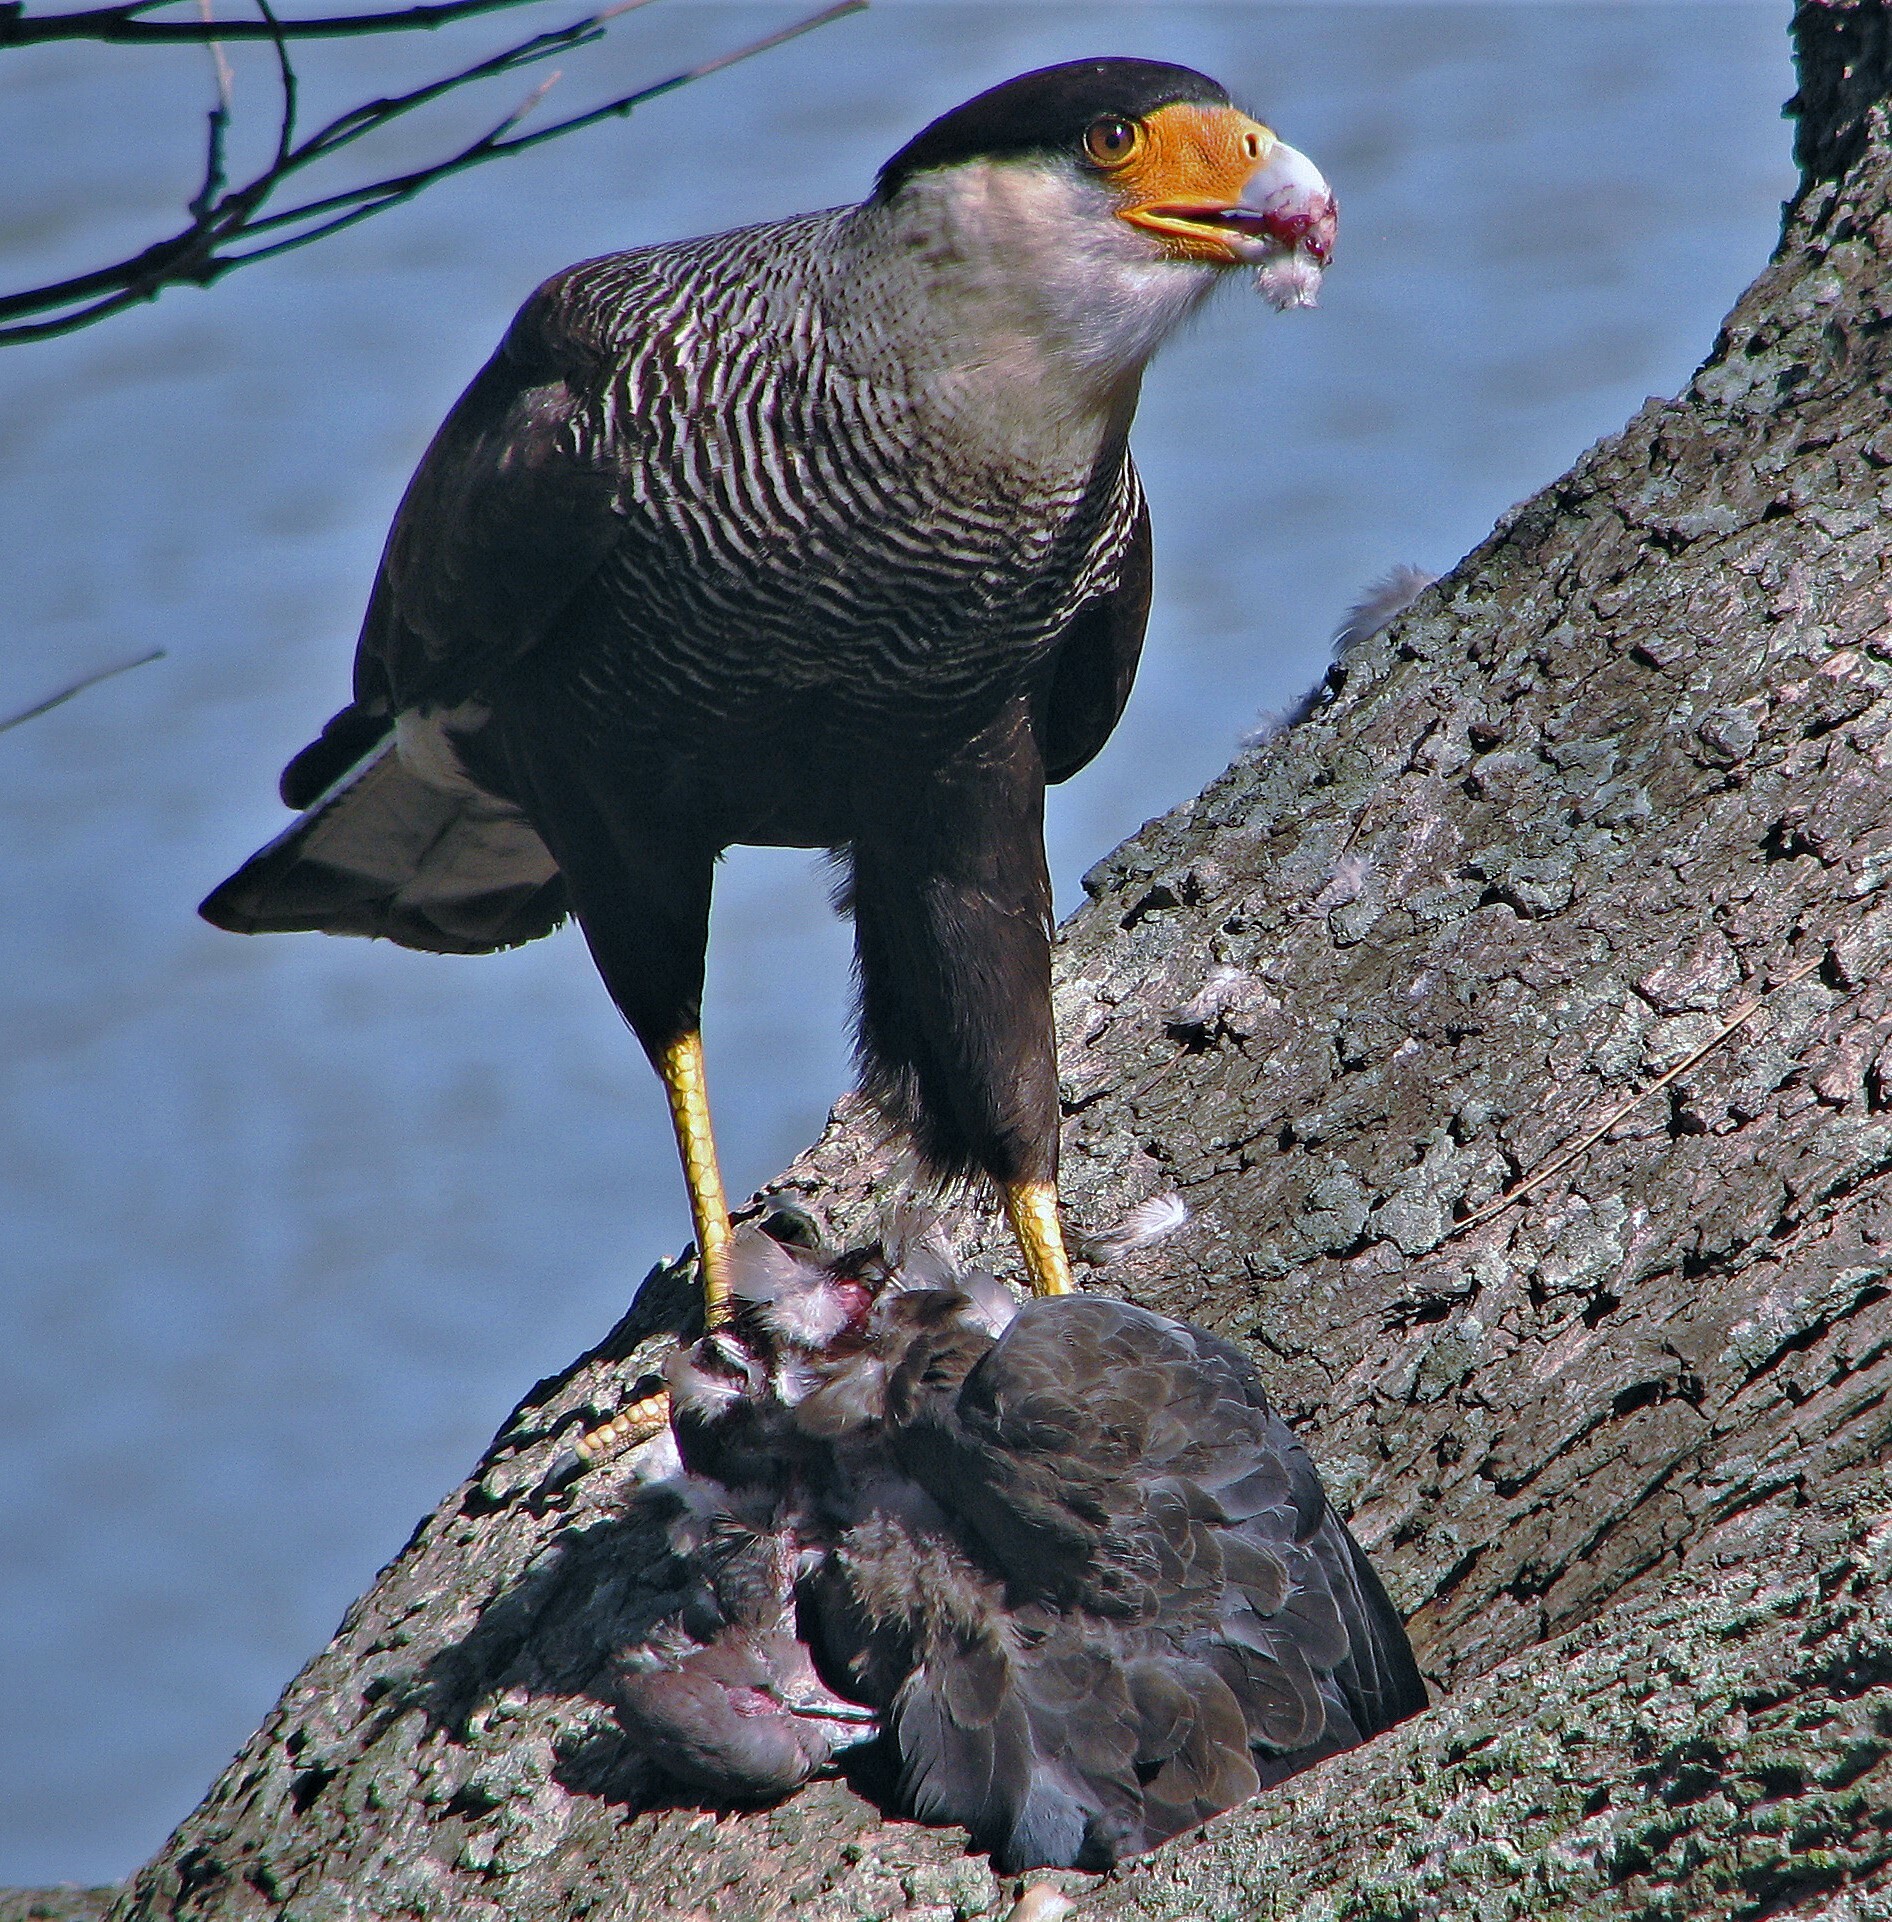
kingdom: Animalia
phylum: Chordata
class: Aves
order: Falconiformes
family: Falconidae
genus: Caracara
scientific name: Caracara plancus
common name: Southern caracara
